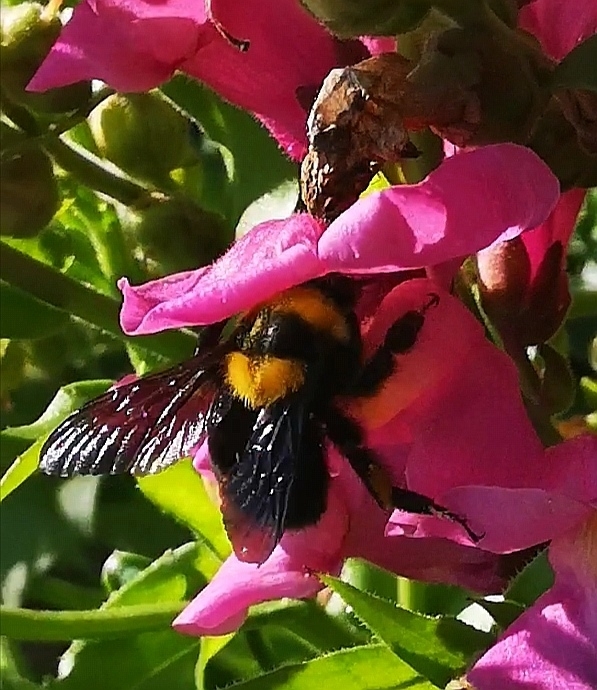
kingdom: Animalia
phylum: Arthropoda
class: Insecta
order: Hymenoptera
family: Apidae
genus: Bombus
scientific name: Bombus argillaceus
